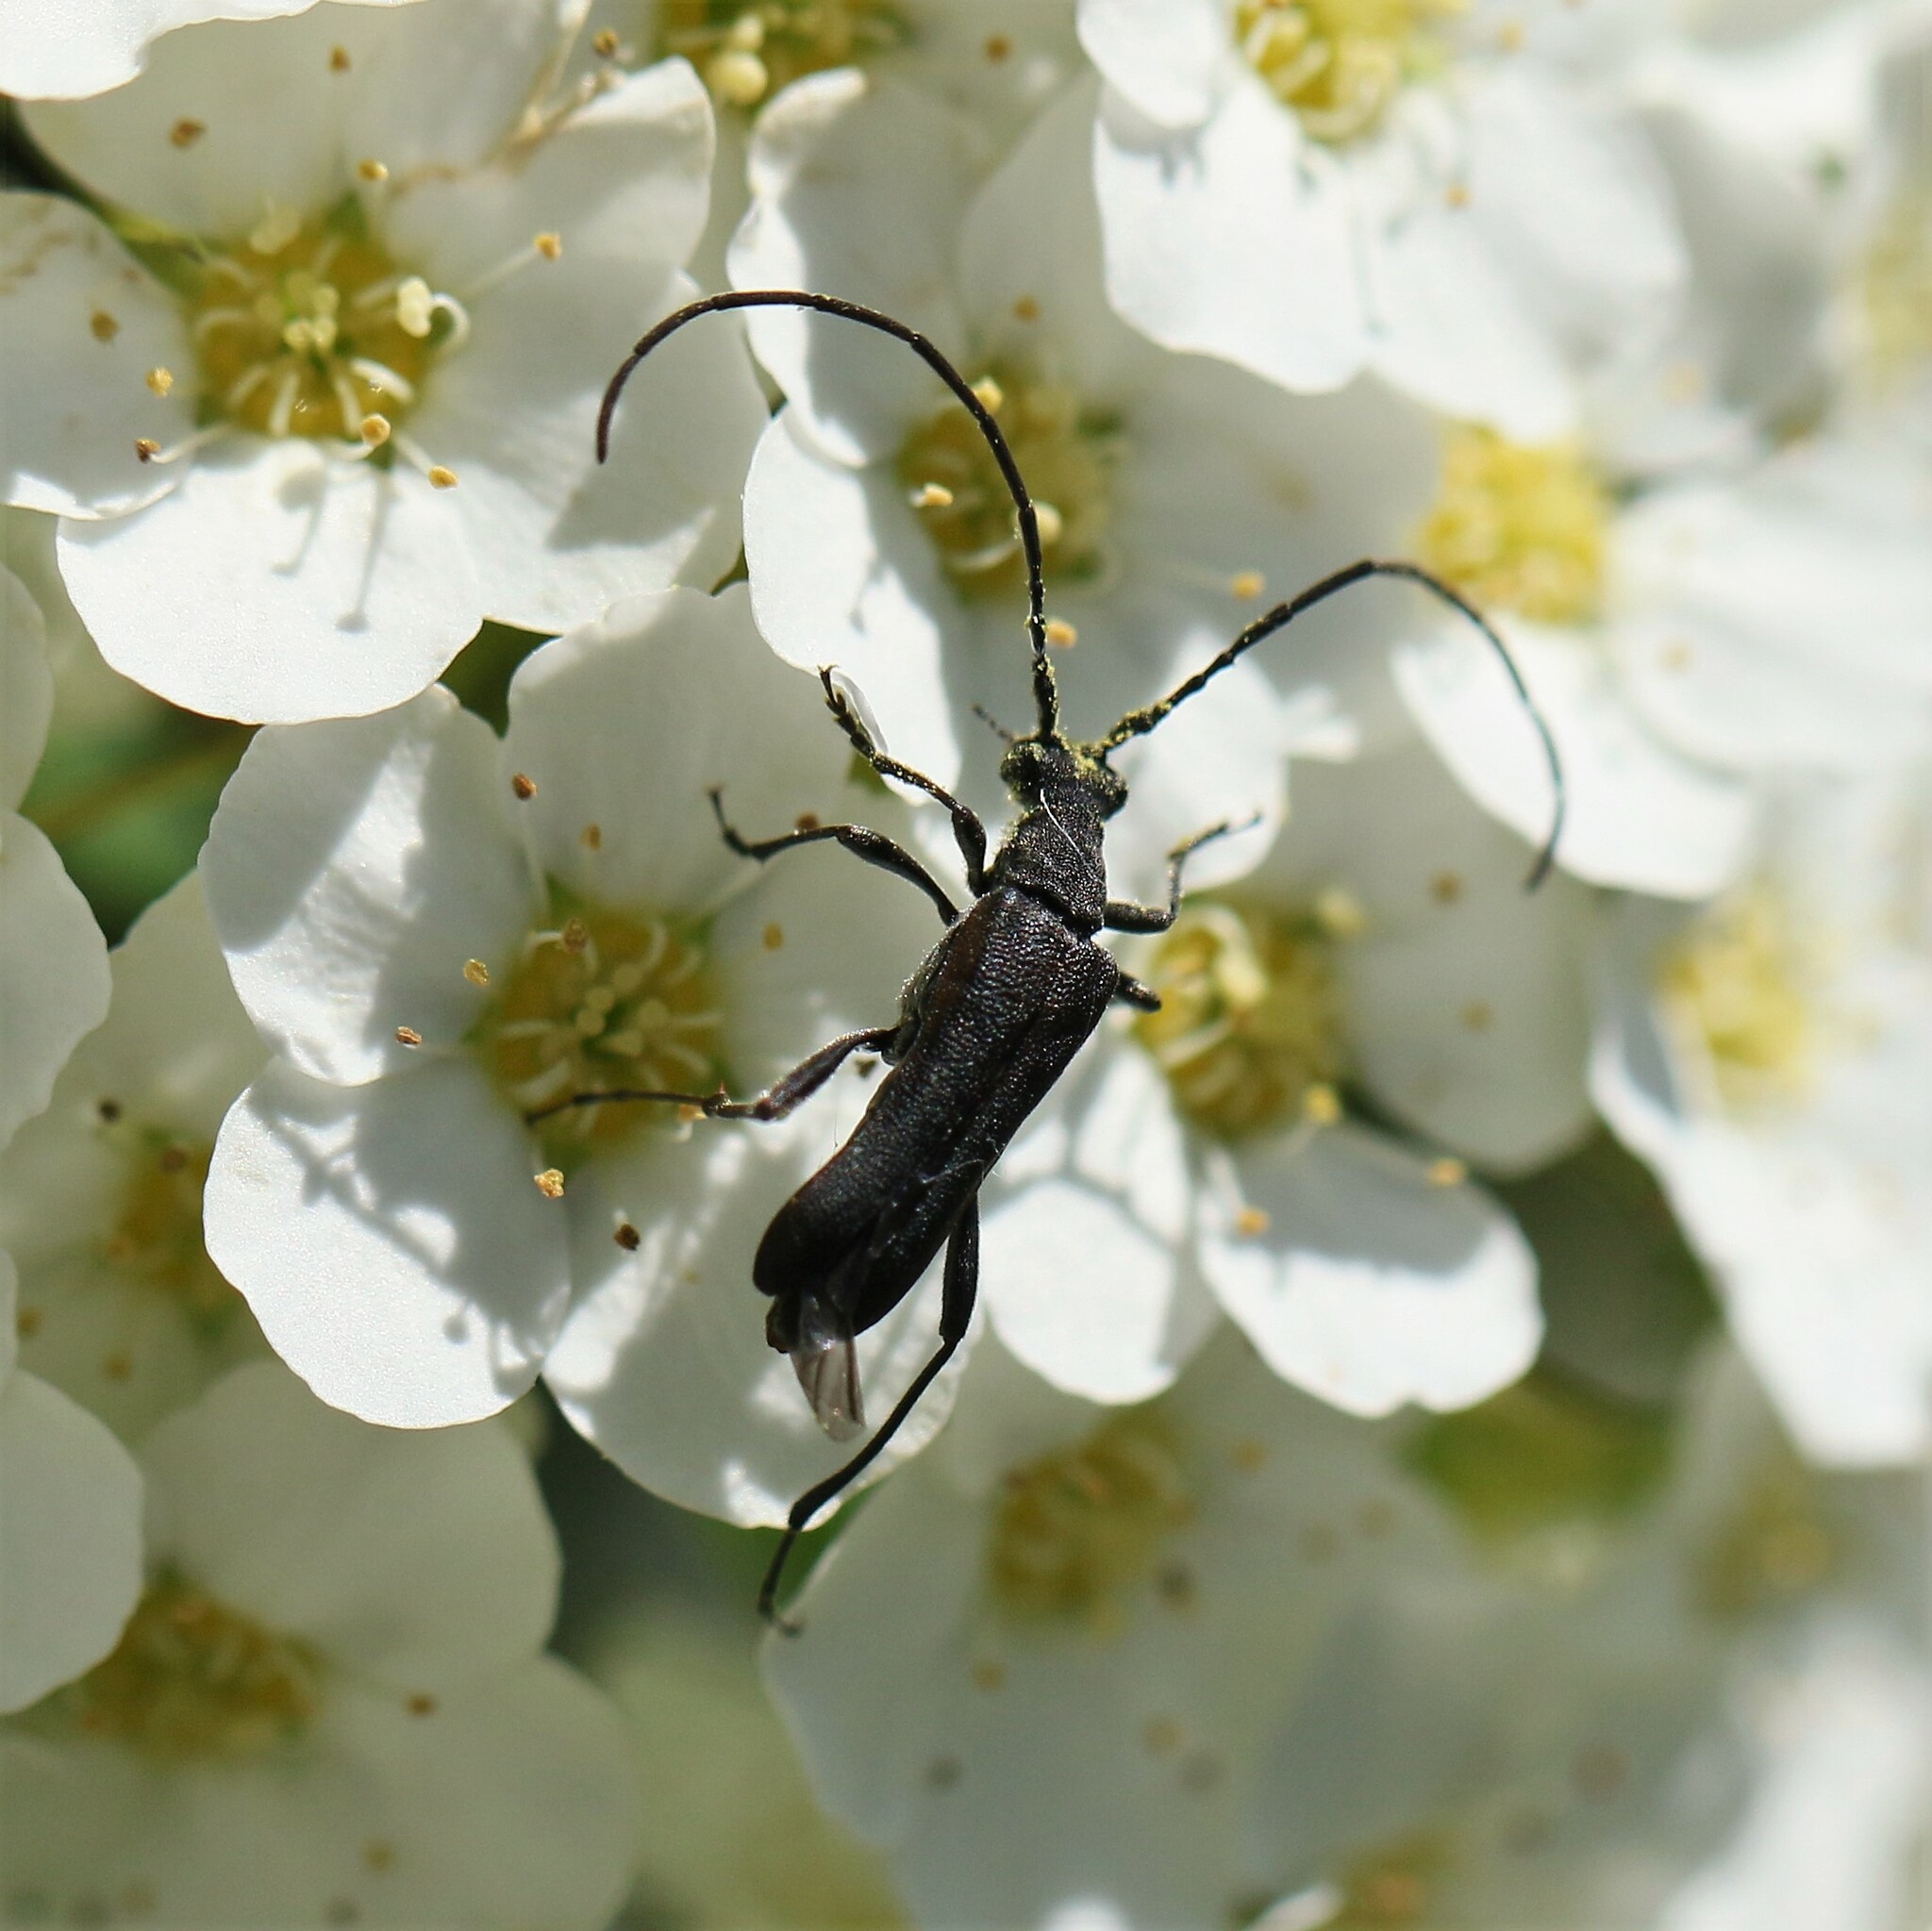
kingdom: Animalia
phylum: Arthropoda
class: Insecta
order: Coleoptera
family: Cerambycidae
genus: Idiopidonia
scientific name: Idiopidonia pedalis
